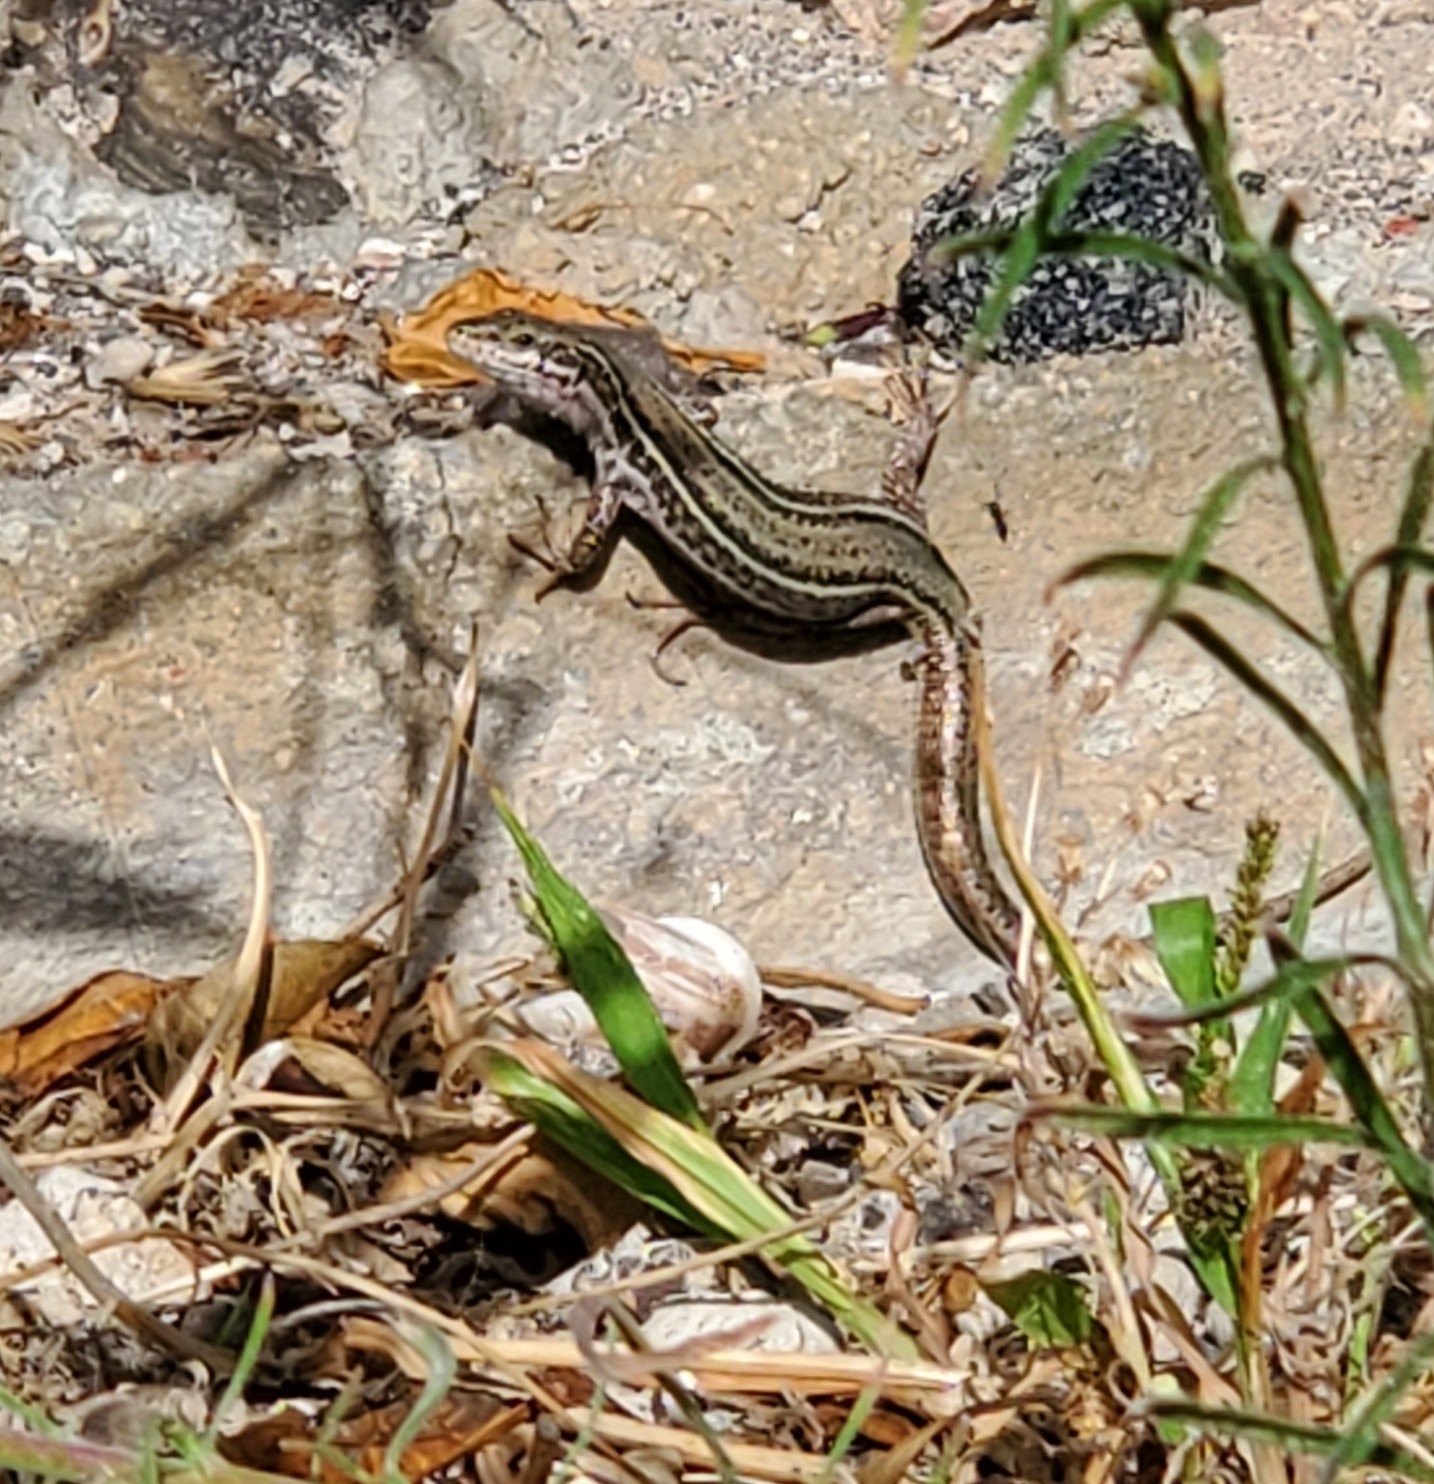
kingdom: Animalia
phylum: Chordata
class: Squamata
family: Lacertidae
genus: Podarcis
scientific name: Podarcis erhardii
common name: Erhard's wall lizard
